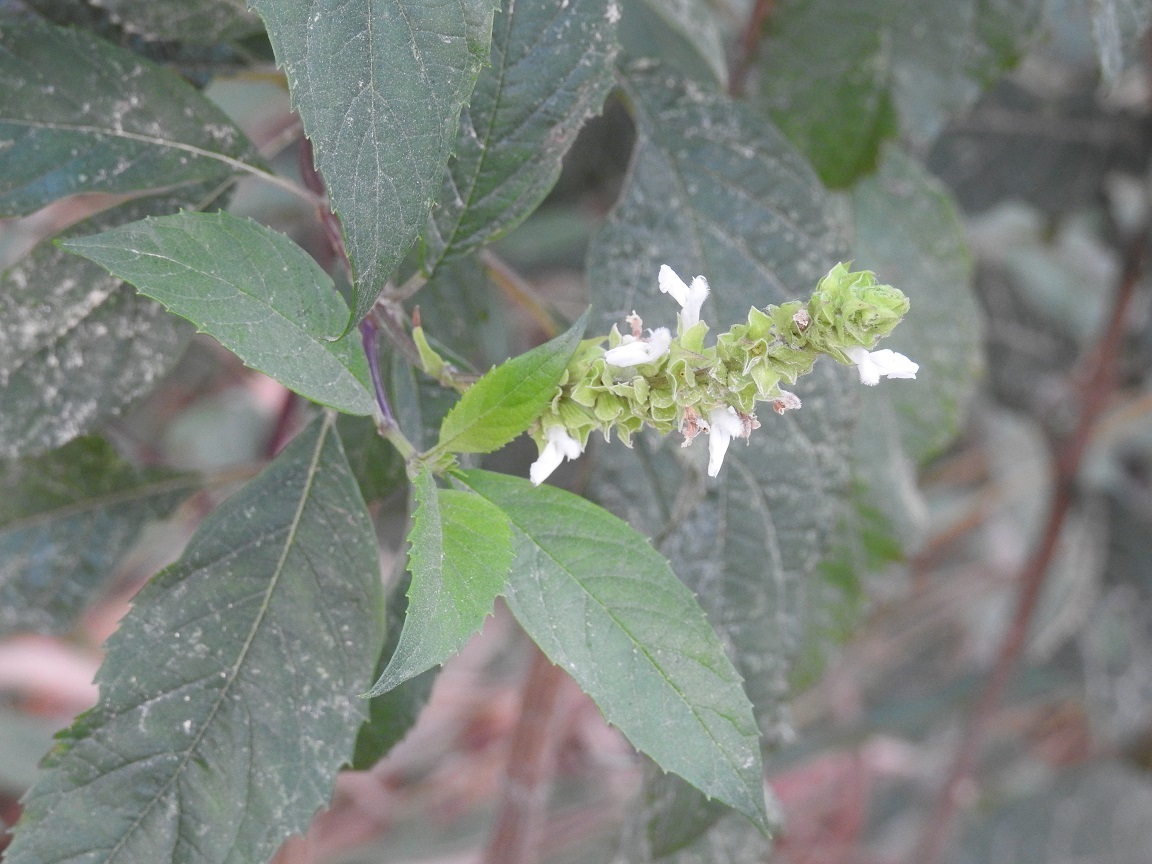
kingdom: Plantae
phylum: Tracheophyta
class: Magnoliopsida
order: Lamiales
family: Lamiaceae
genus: Salvia
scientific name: Salvia collinsii
